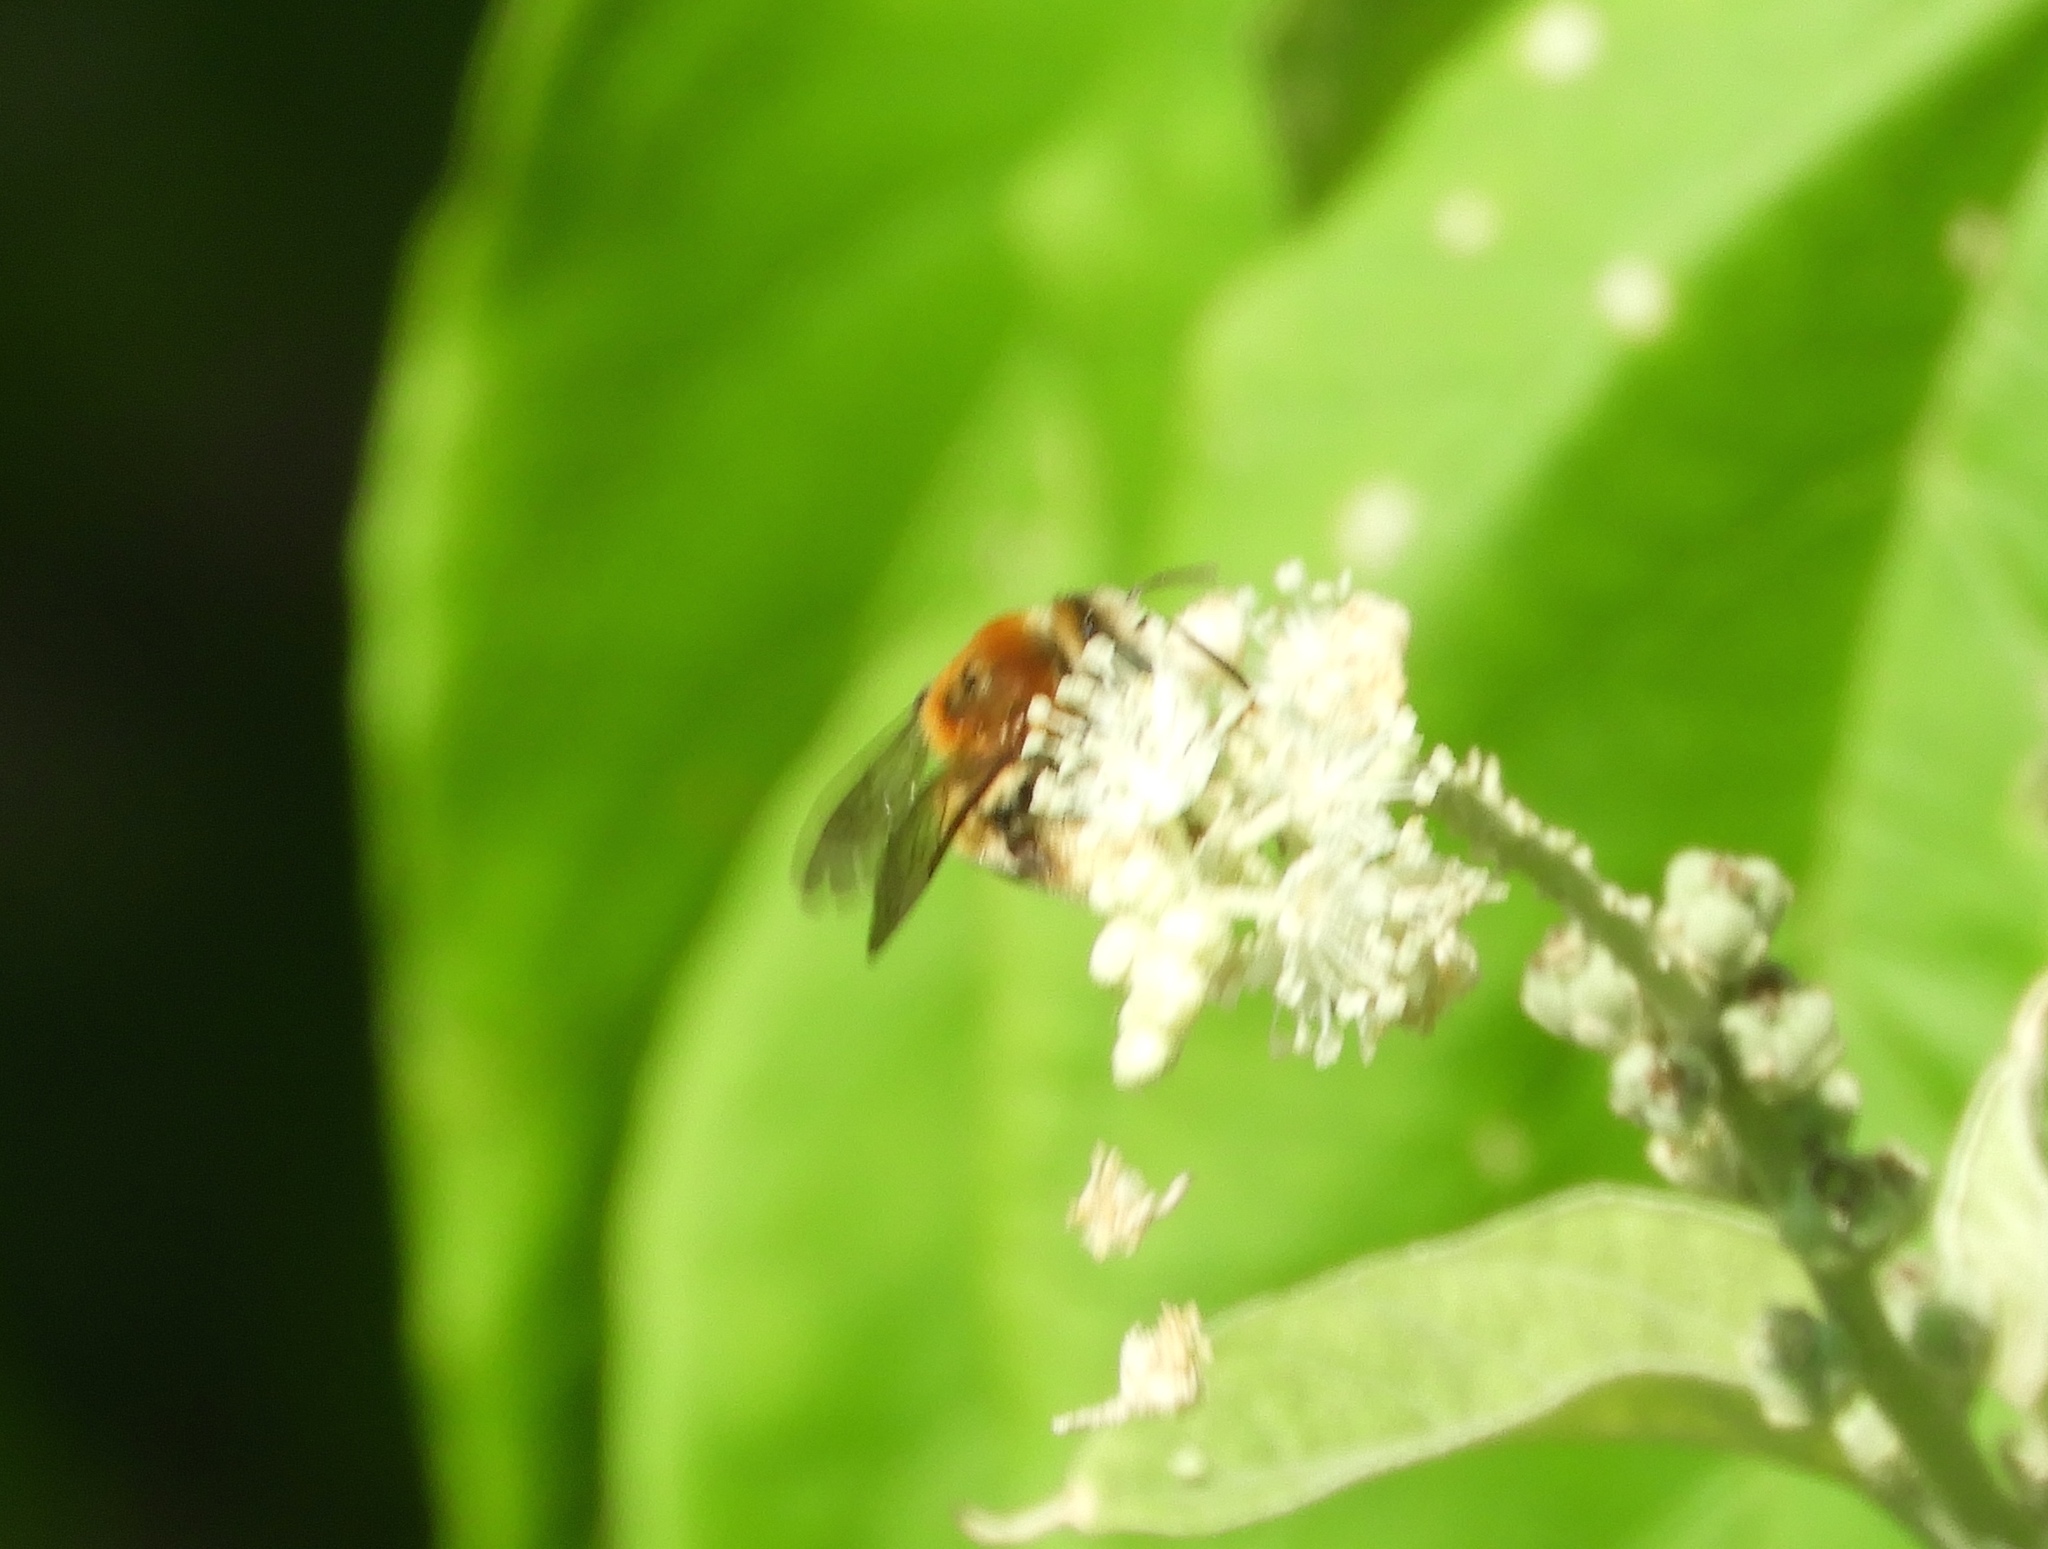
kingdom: Animalia
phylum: Arthropoda
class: Insecta
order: Hymenoptera
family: Apidae
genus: Apidae
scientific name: Apidae
